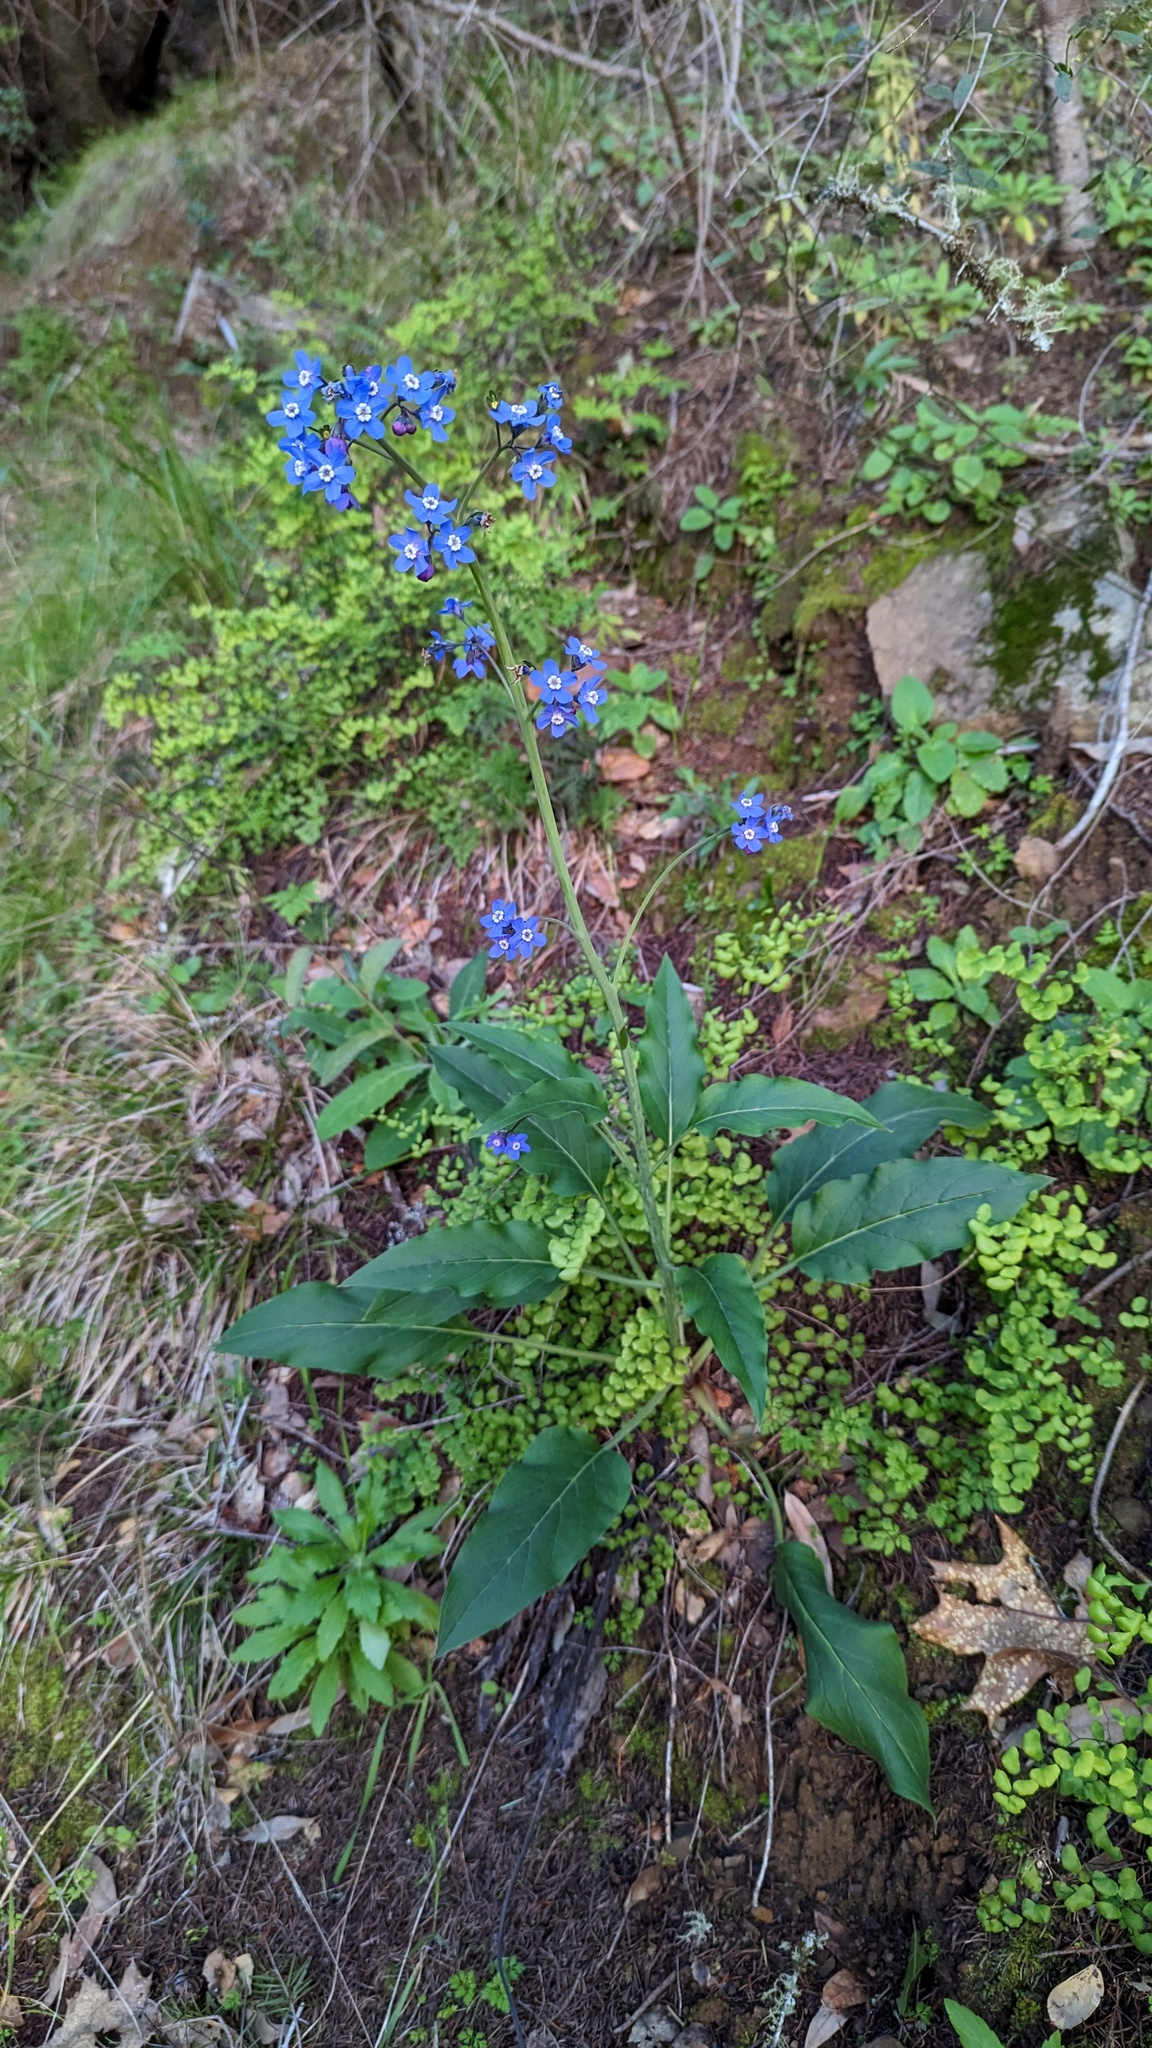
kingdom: Plantae
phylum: Tracheophyta
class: Magnoliopsida
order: Boraginales
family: Boraginaceae
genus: Adelinia
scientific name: Adelinia grande
